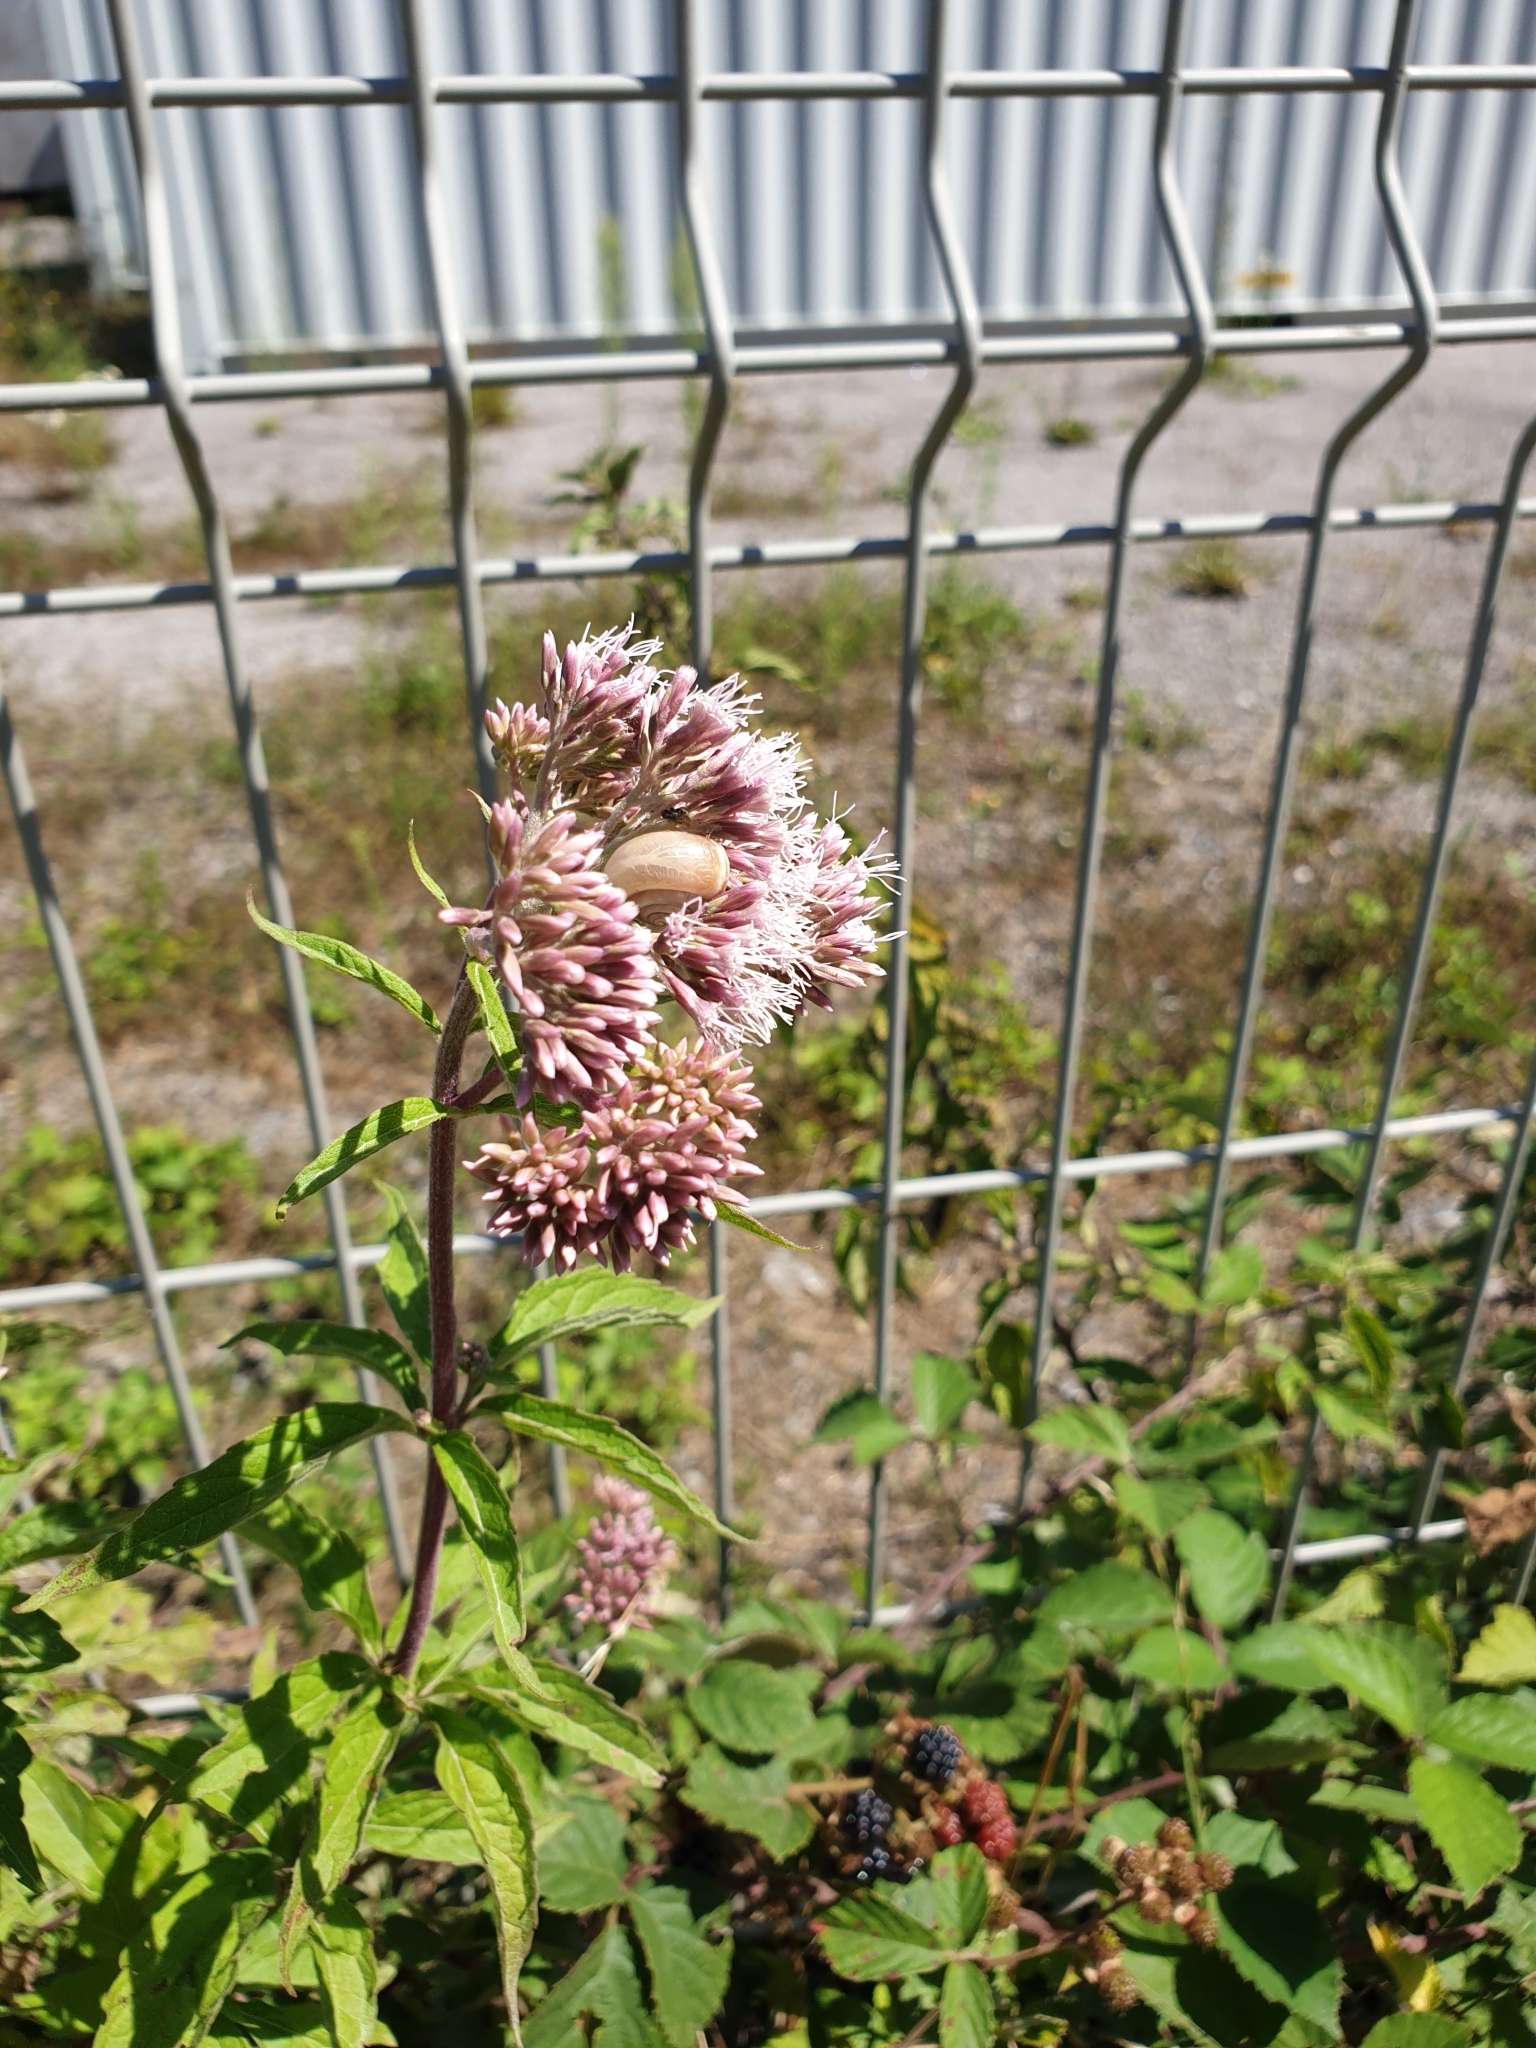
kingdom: Plantae
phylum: Tracheophyta
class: Magnoliopsida
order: Asterales
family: Asteraceae
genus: Eupatorium
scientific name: Eupatorium cannabinum
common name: Hemp-agrimony
